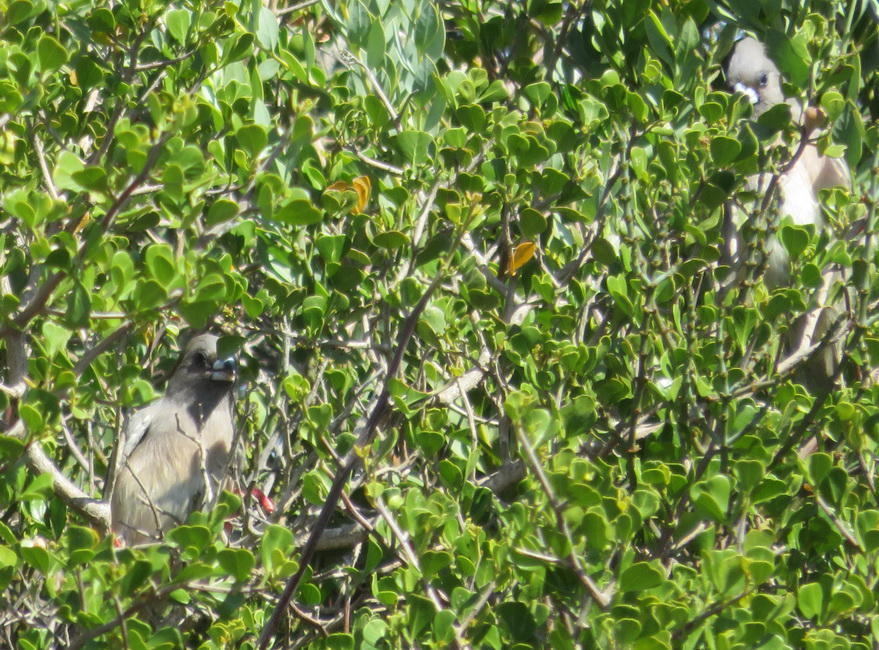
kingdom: Animalia
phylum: Chordata
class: Aves
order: Coliiformes
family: Coliidae
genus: Colius
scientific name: Colius colius
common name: White-backed mousebird
